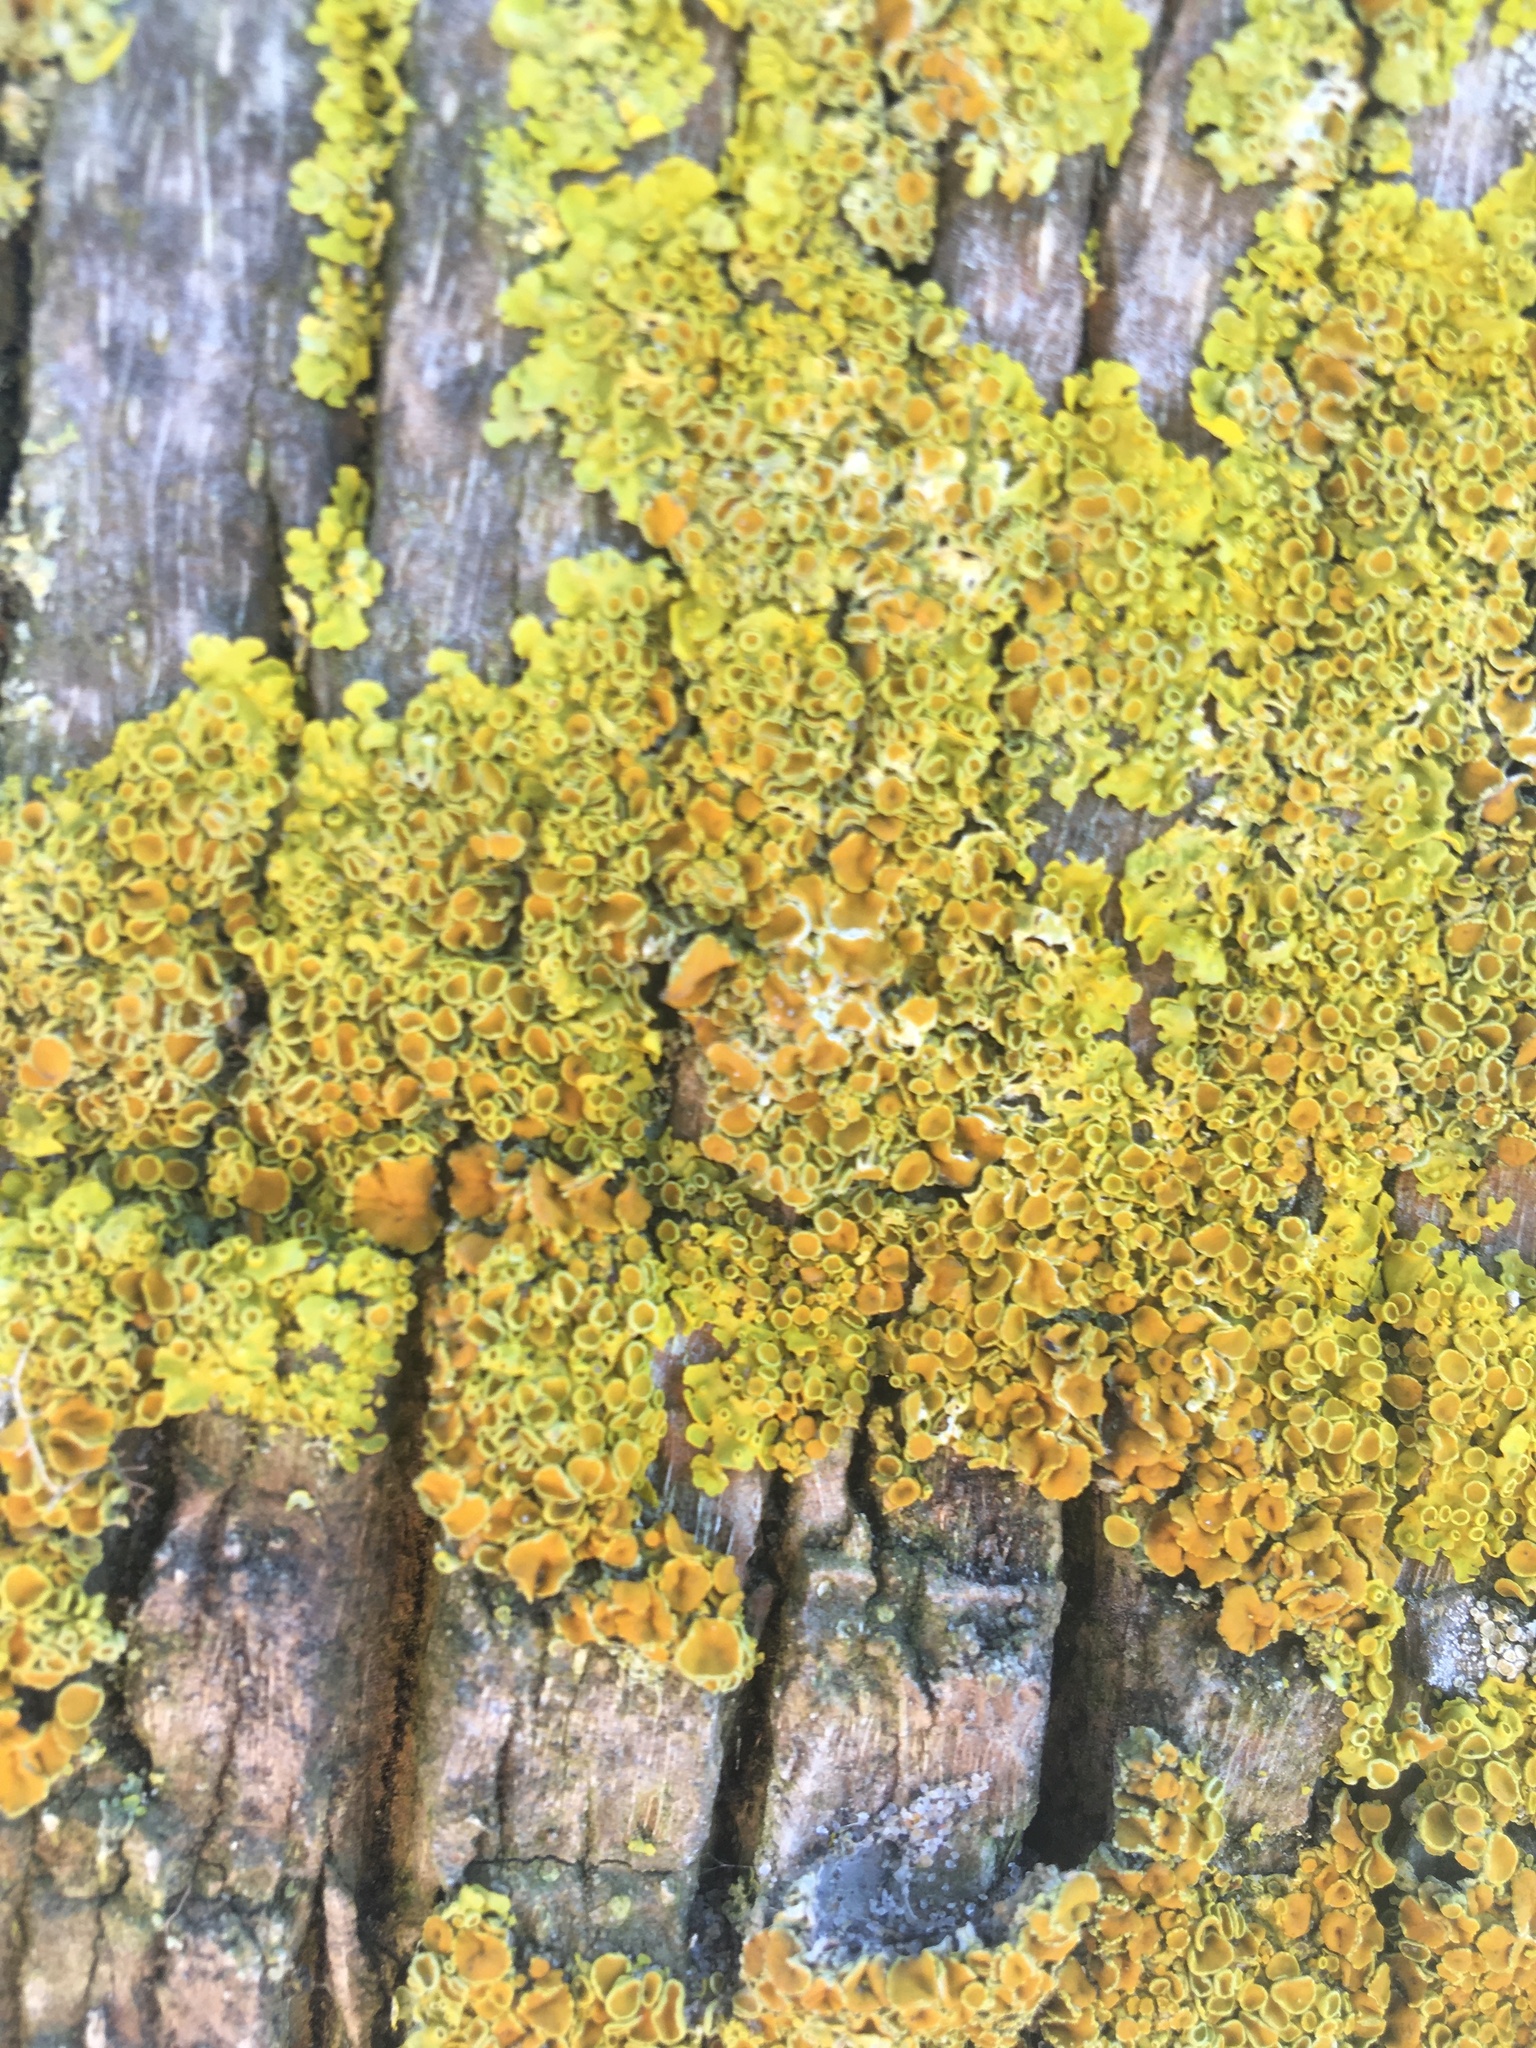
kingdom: Fungi
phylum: Ascomycota
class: Lecanoromycetes
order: Teloschistales
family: Teloschistaceae
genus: Xanthoria
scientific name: Xanthoria parietina
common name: Common orange lichen
